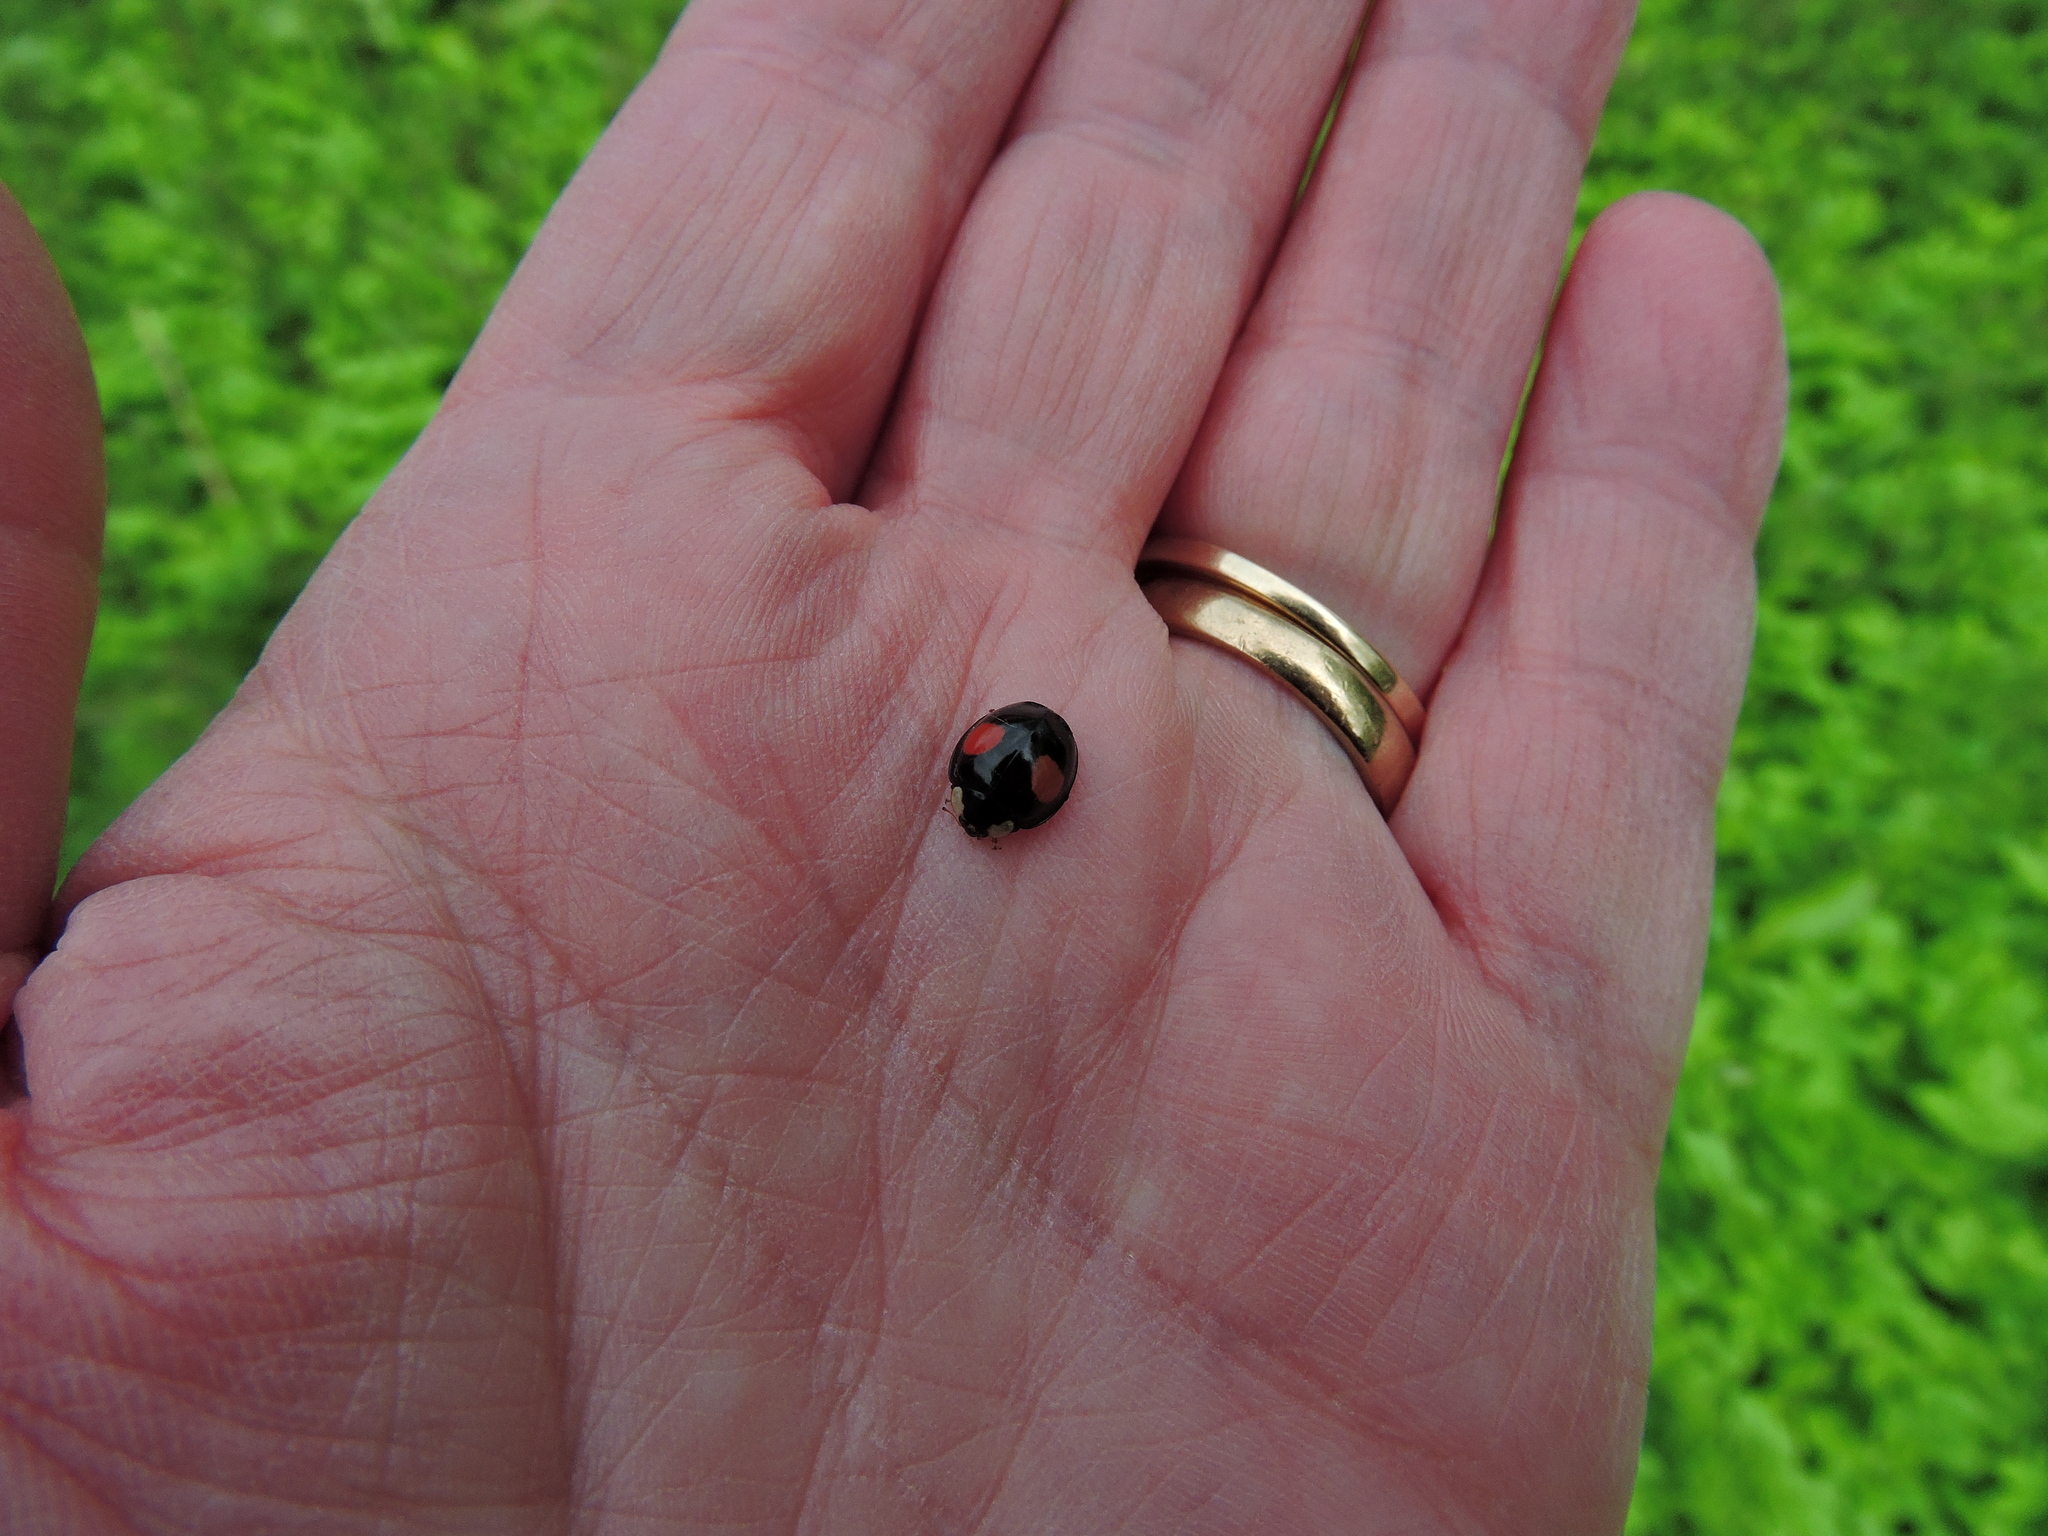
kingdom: Animalia
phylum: Arthropoda
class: Insecta
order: Coleoptera
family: Coccinellidae
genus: Harmonia
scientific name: Harmonia axyridis
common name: Harlequin ladybird
